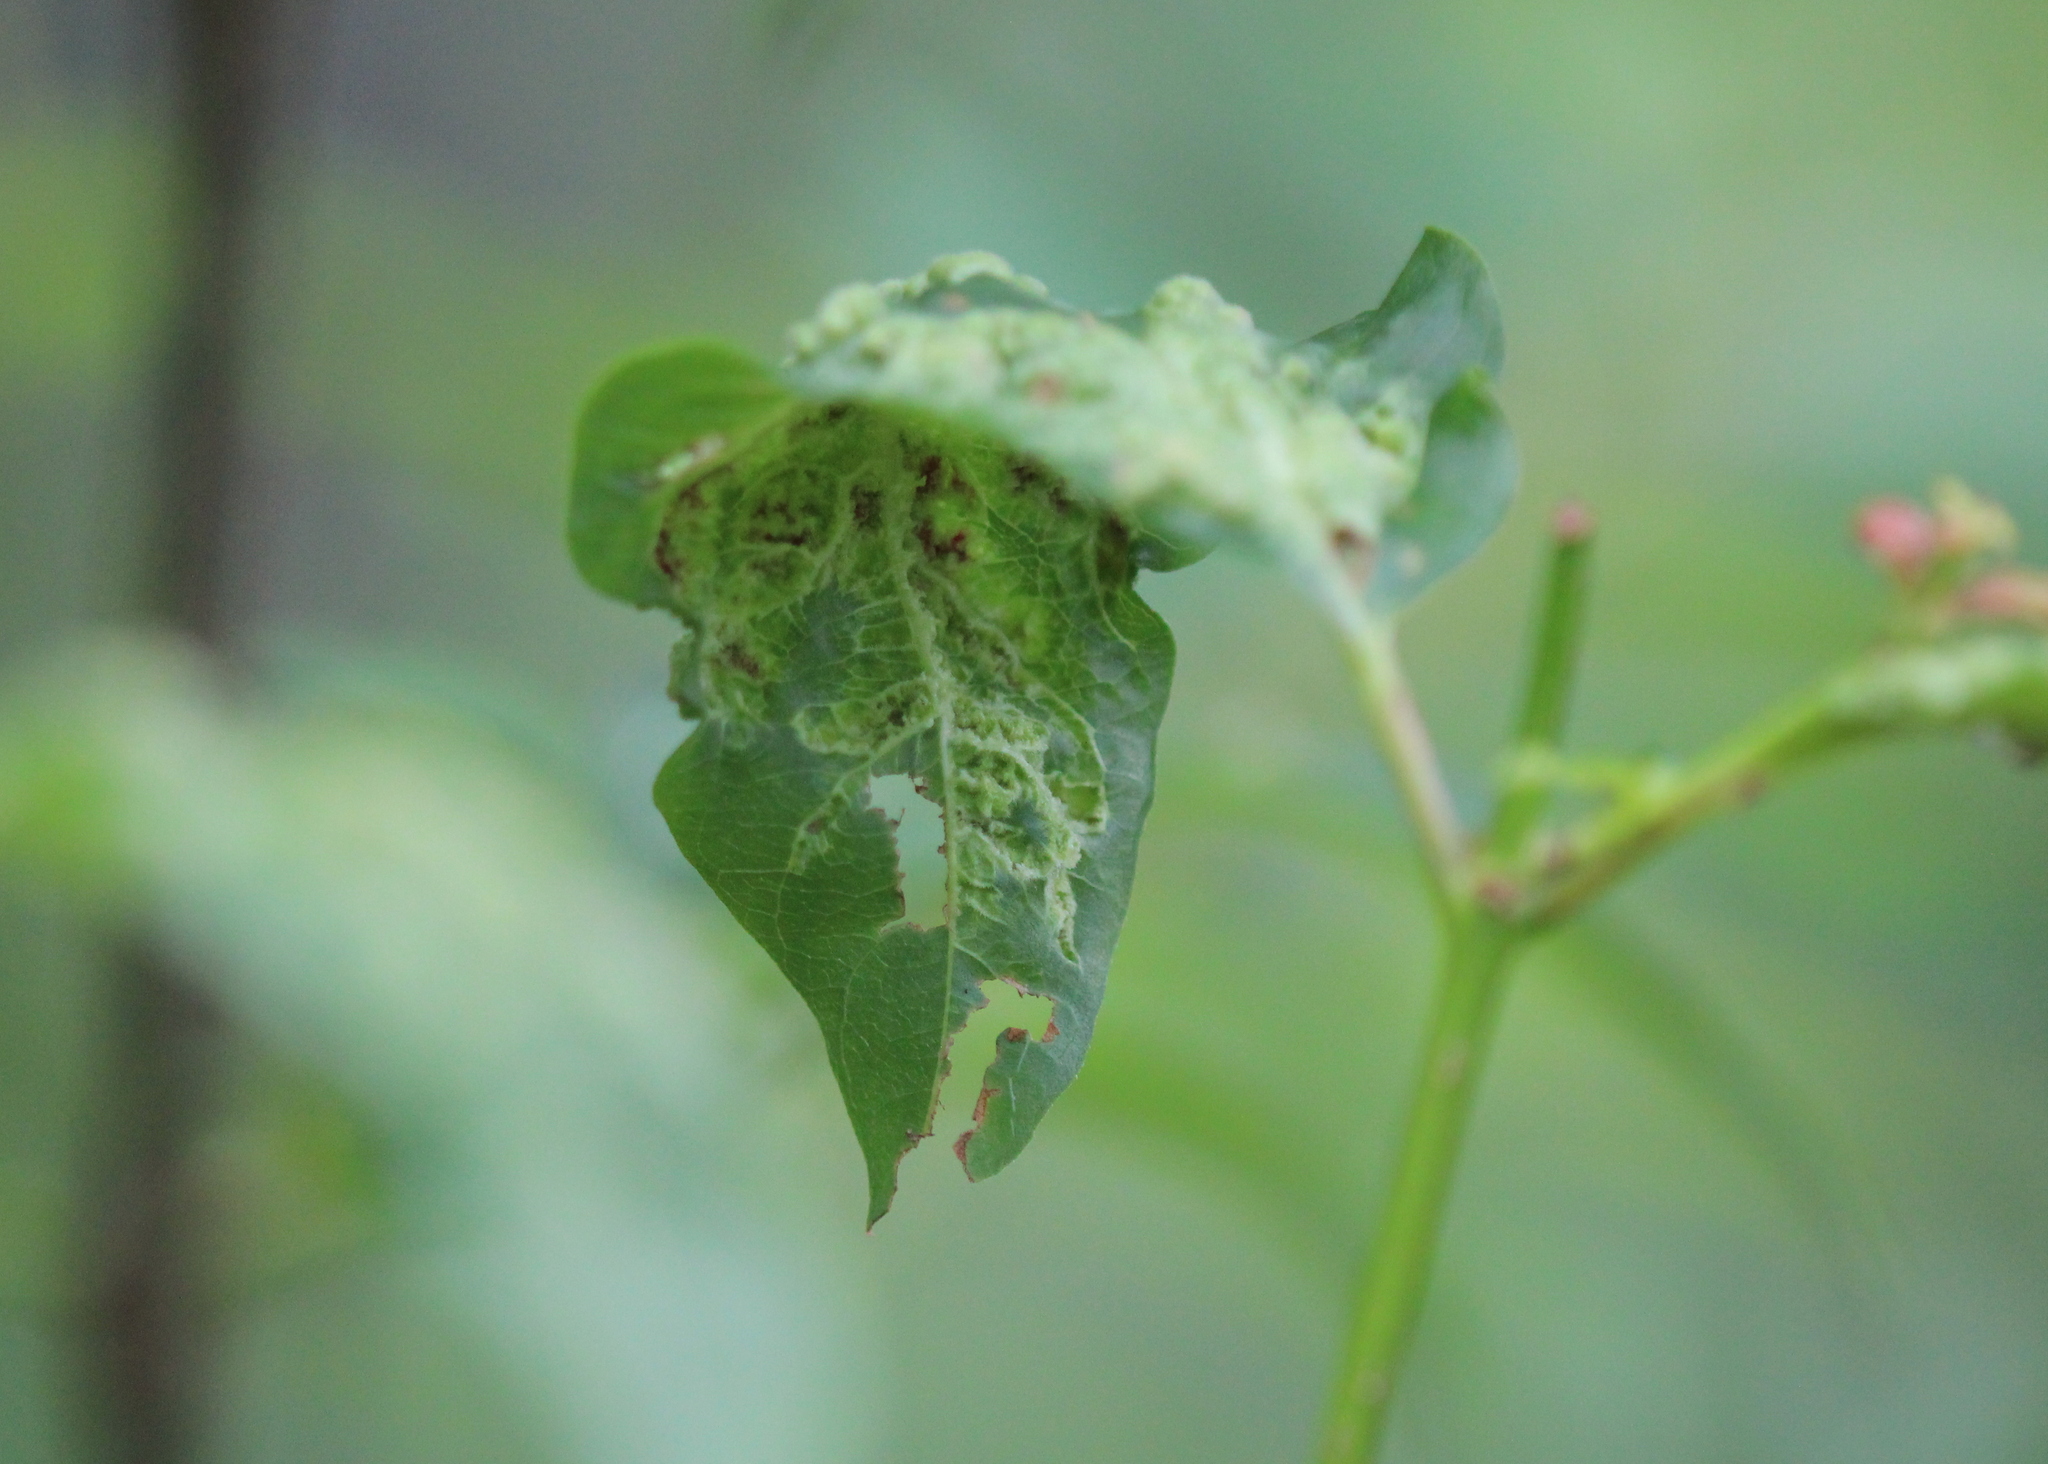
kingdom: Animalia
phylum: Arthropoda
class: Arachnida
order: Trombidiformes
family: Eriophyidae
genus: Aceria
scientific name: Aceria
